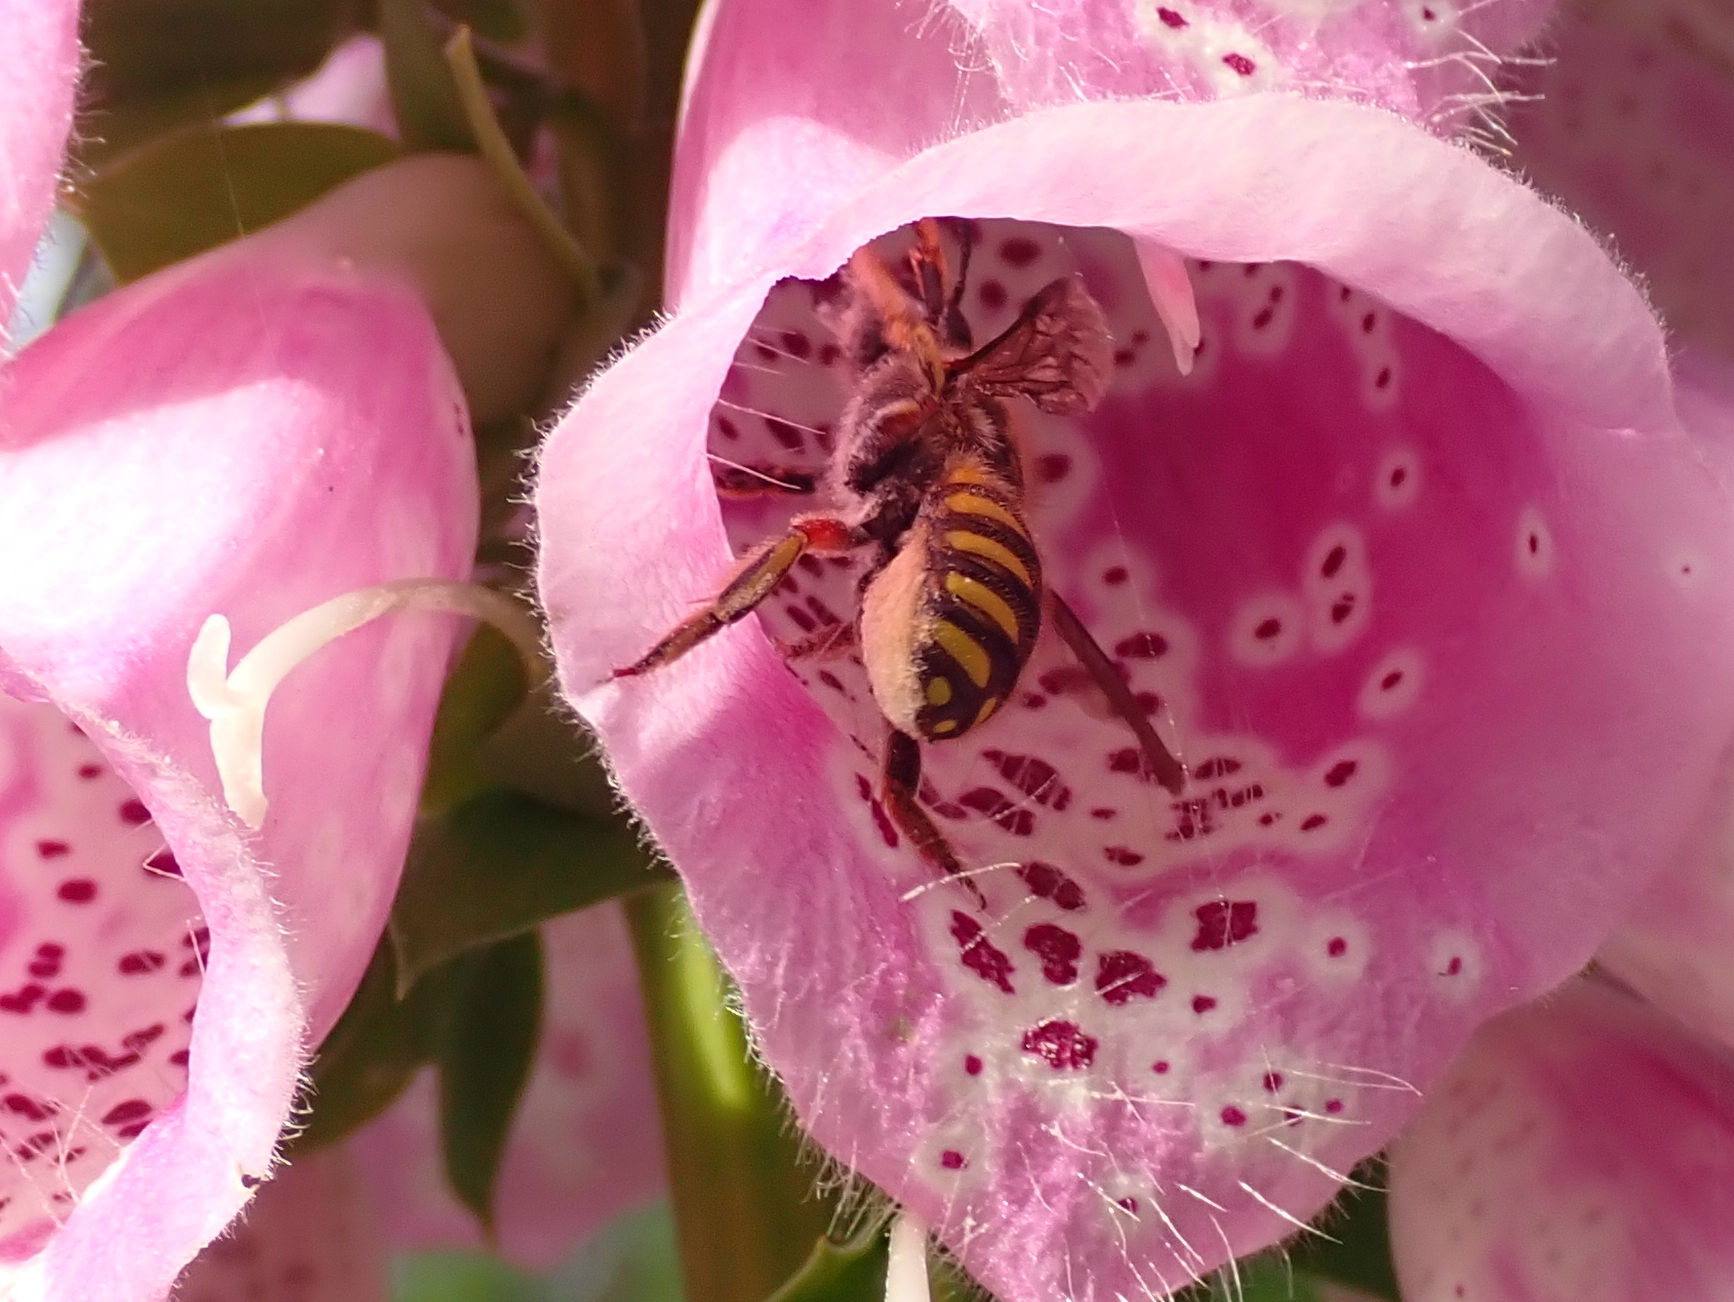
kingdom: Animalia
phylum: Arthropoda
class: Insecta
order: Hymenoptera
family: Megachilidae
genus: Anthidium
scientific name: Anthidium manicatum
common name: Wool carder bee
